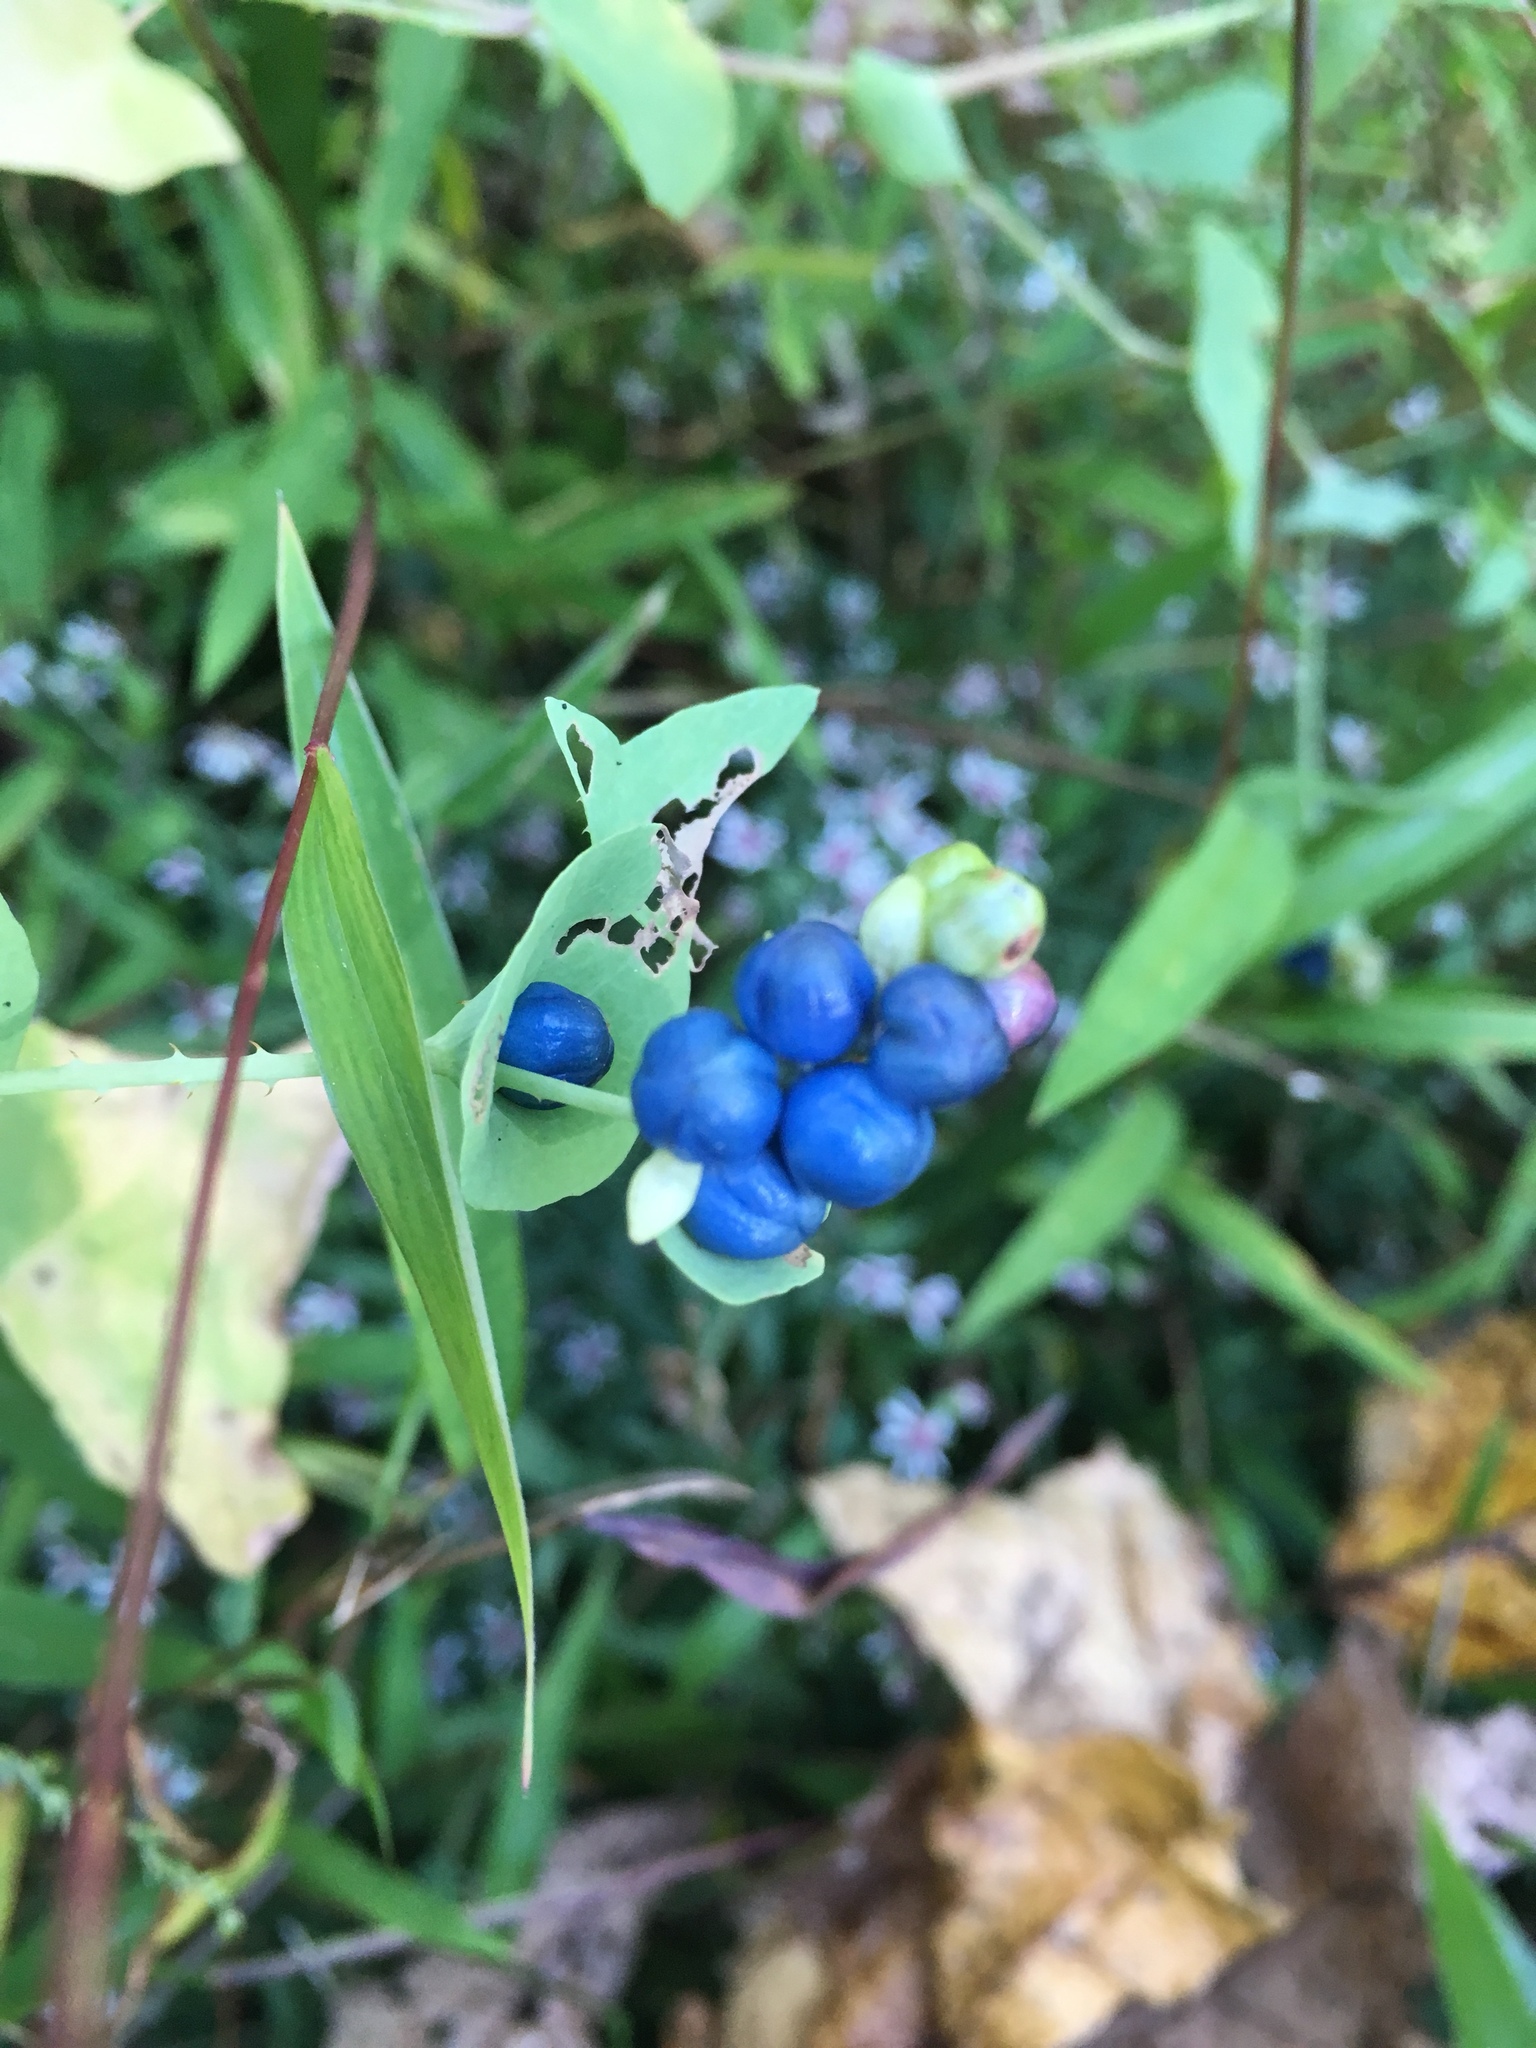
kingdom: Plantae
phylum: Tracheophyta
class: Magnoliopsida
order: Caryophyllales
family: Polygonaceae
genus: Persicaria
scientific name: Persicaria perfoliata
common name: Asiatic tearthumb
